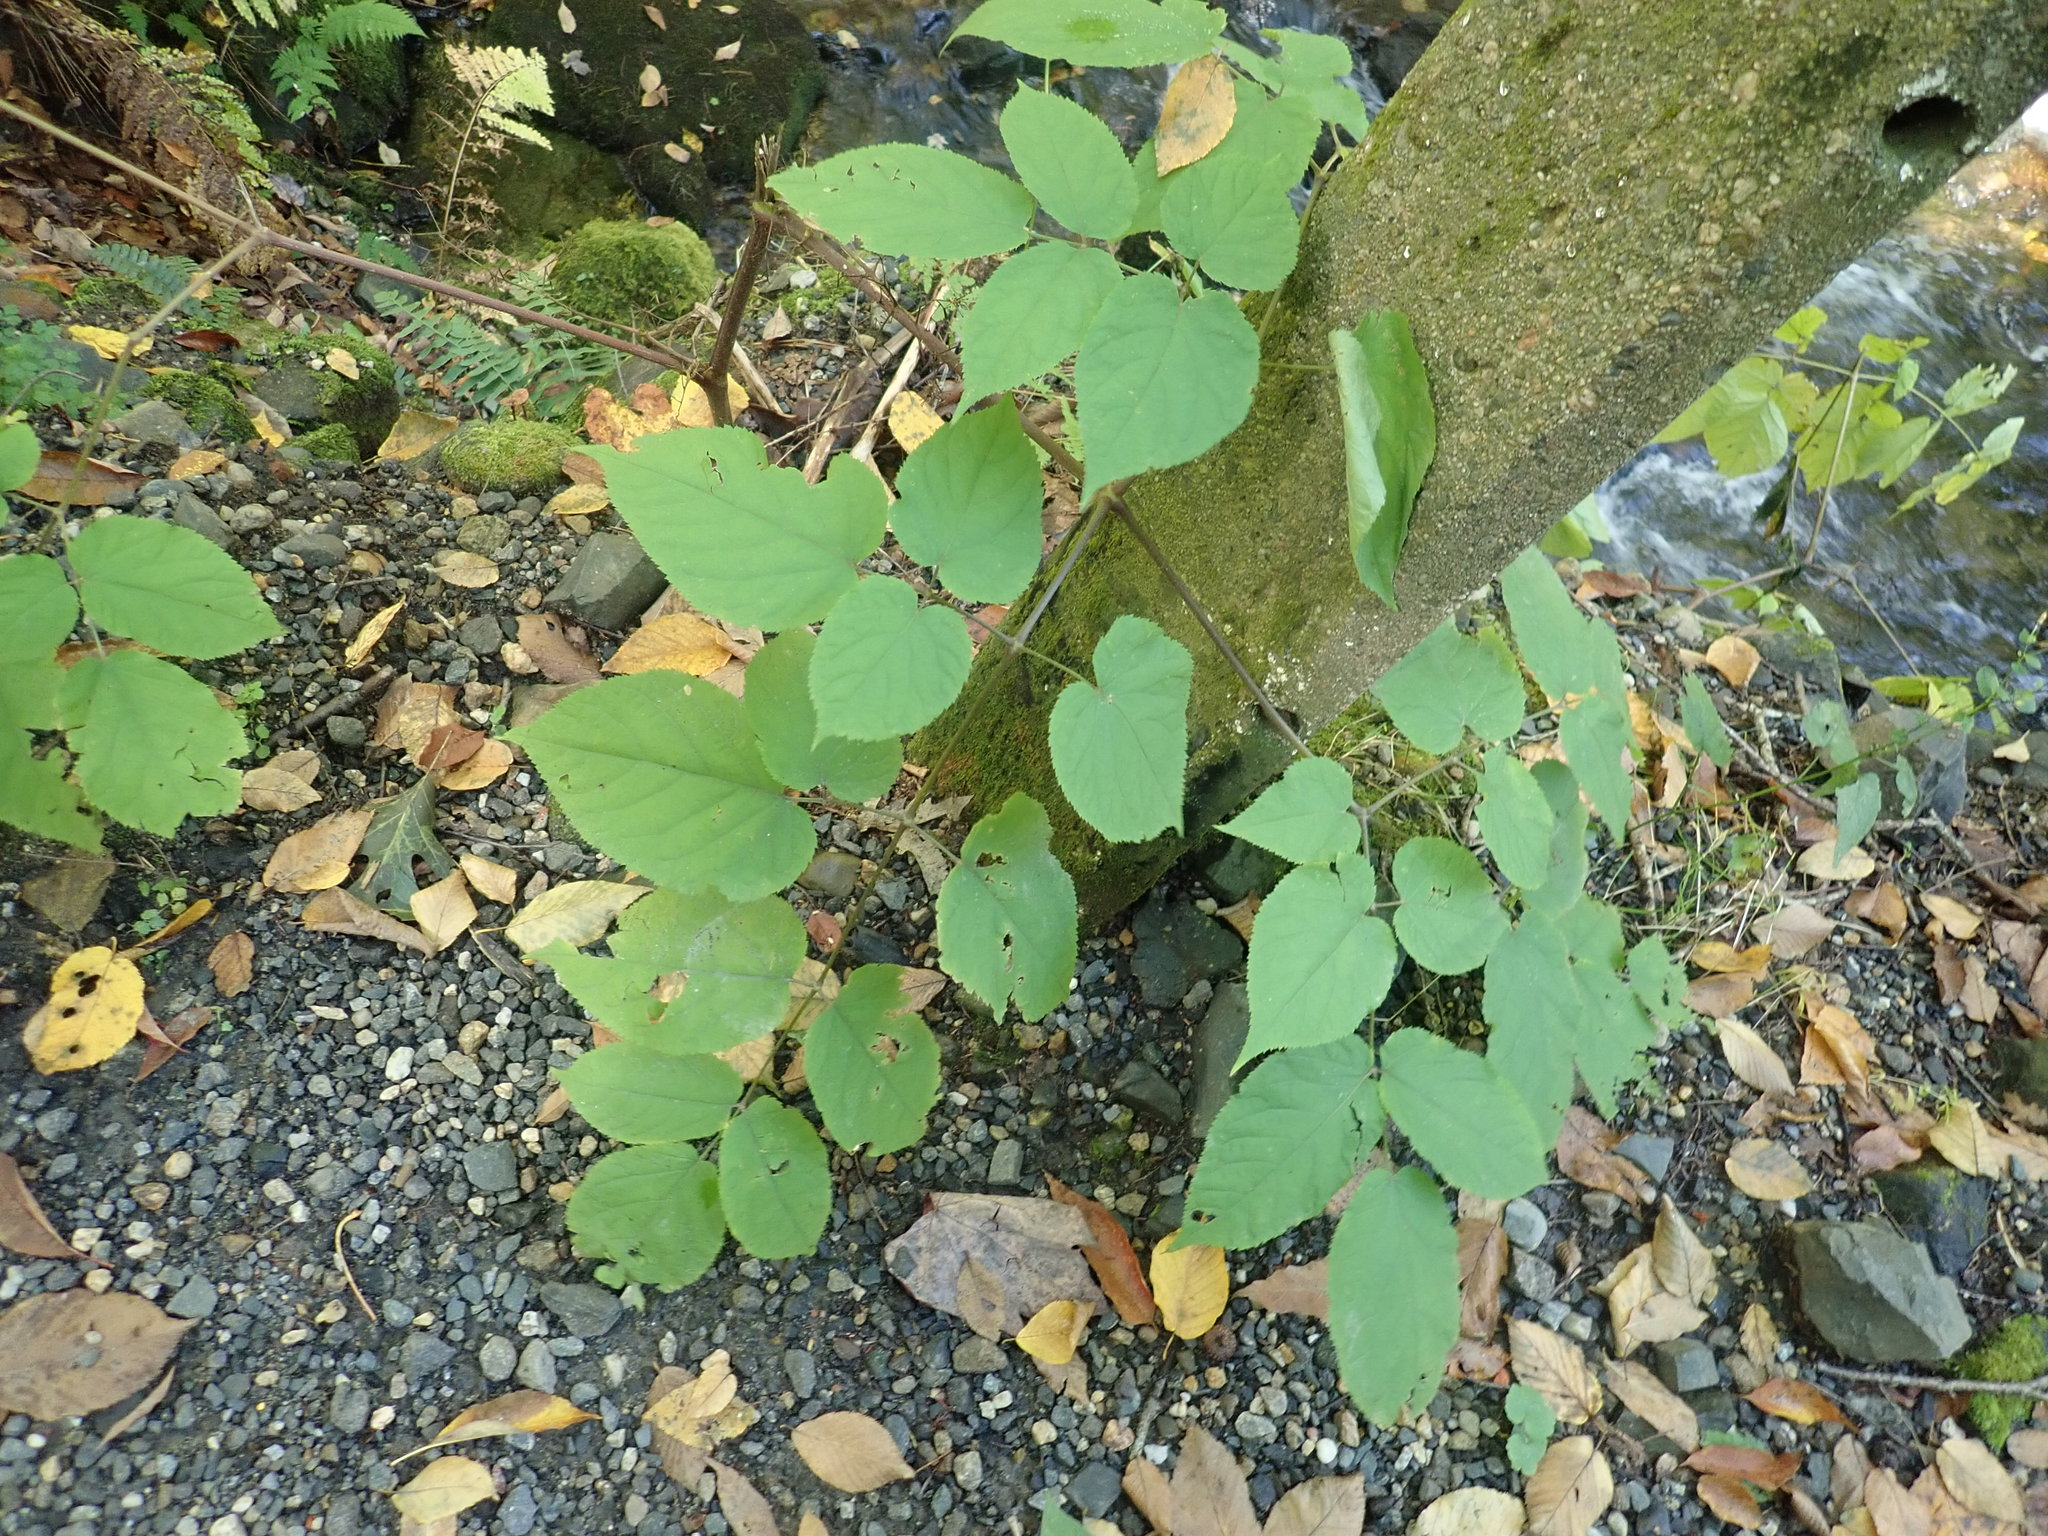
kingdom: Plantae
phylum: Tracheophyta
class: Magnoliopsida
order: Apiales
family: Araliaceae
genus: Aralia
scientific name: Aralia racemosa
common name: American-spikenard
